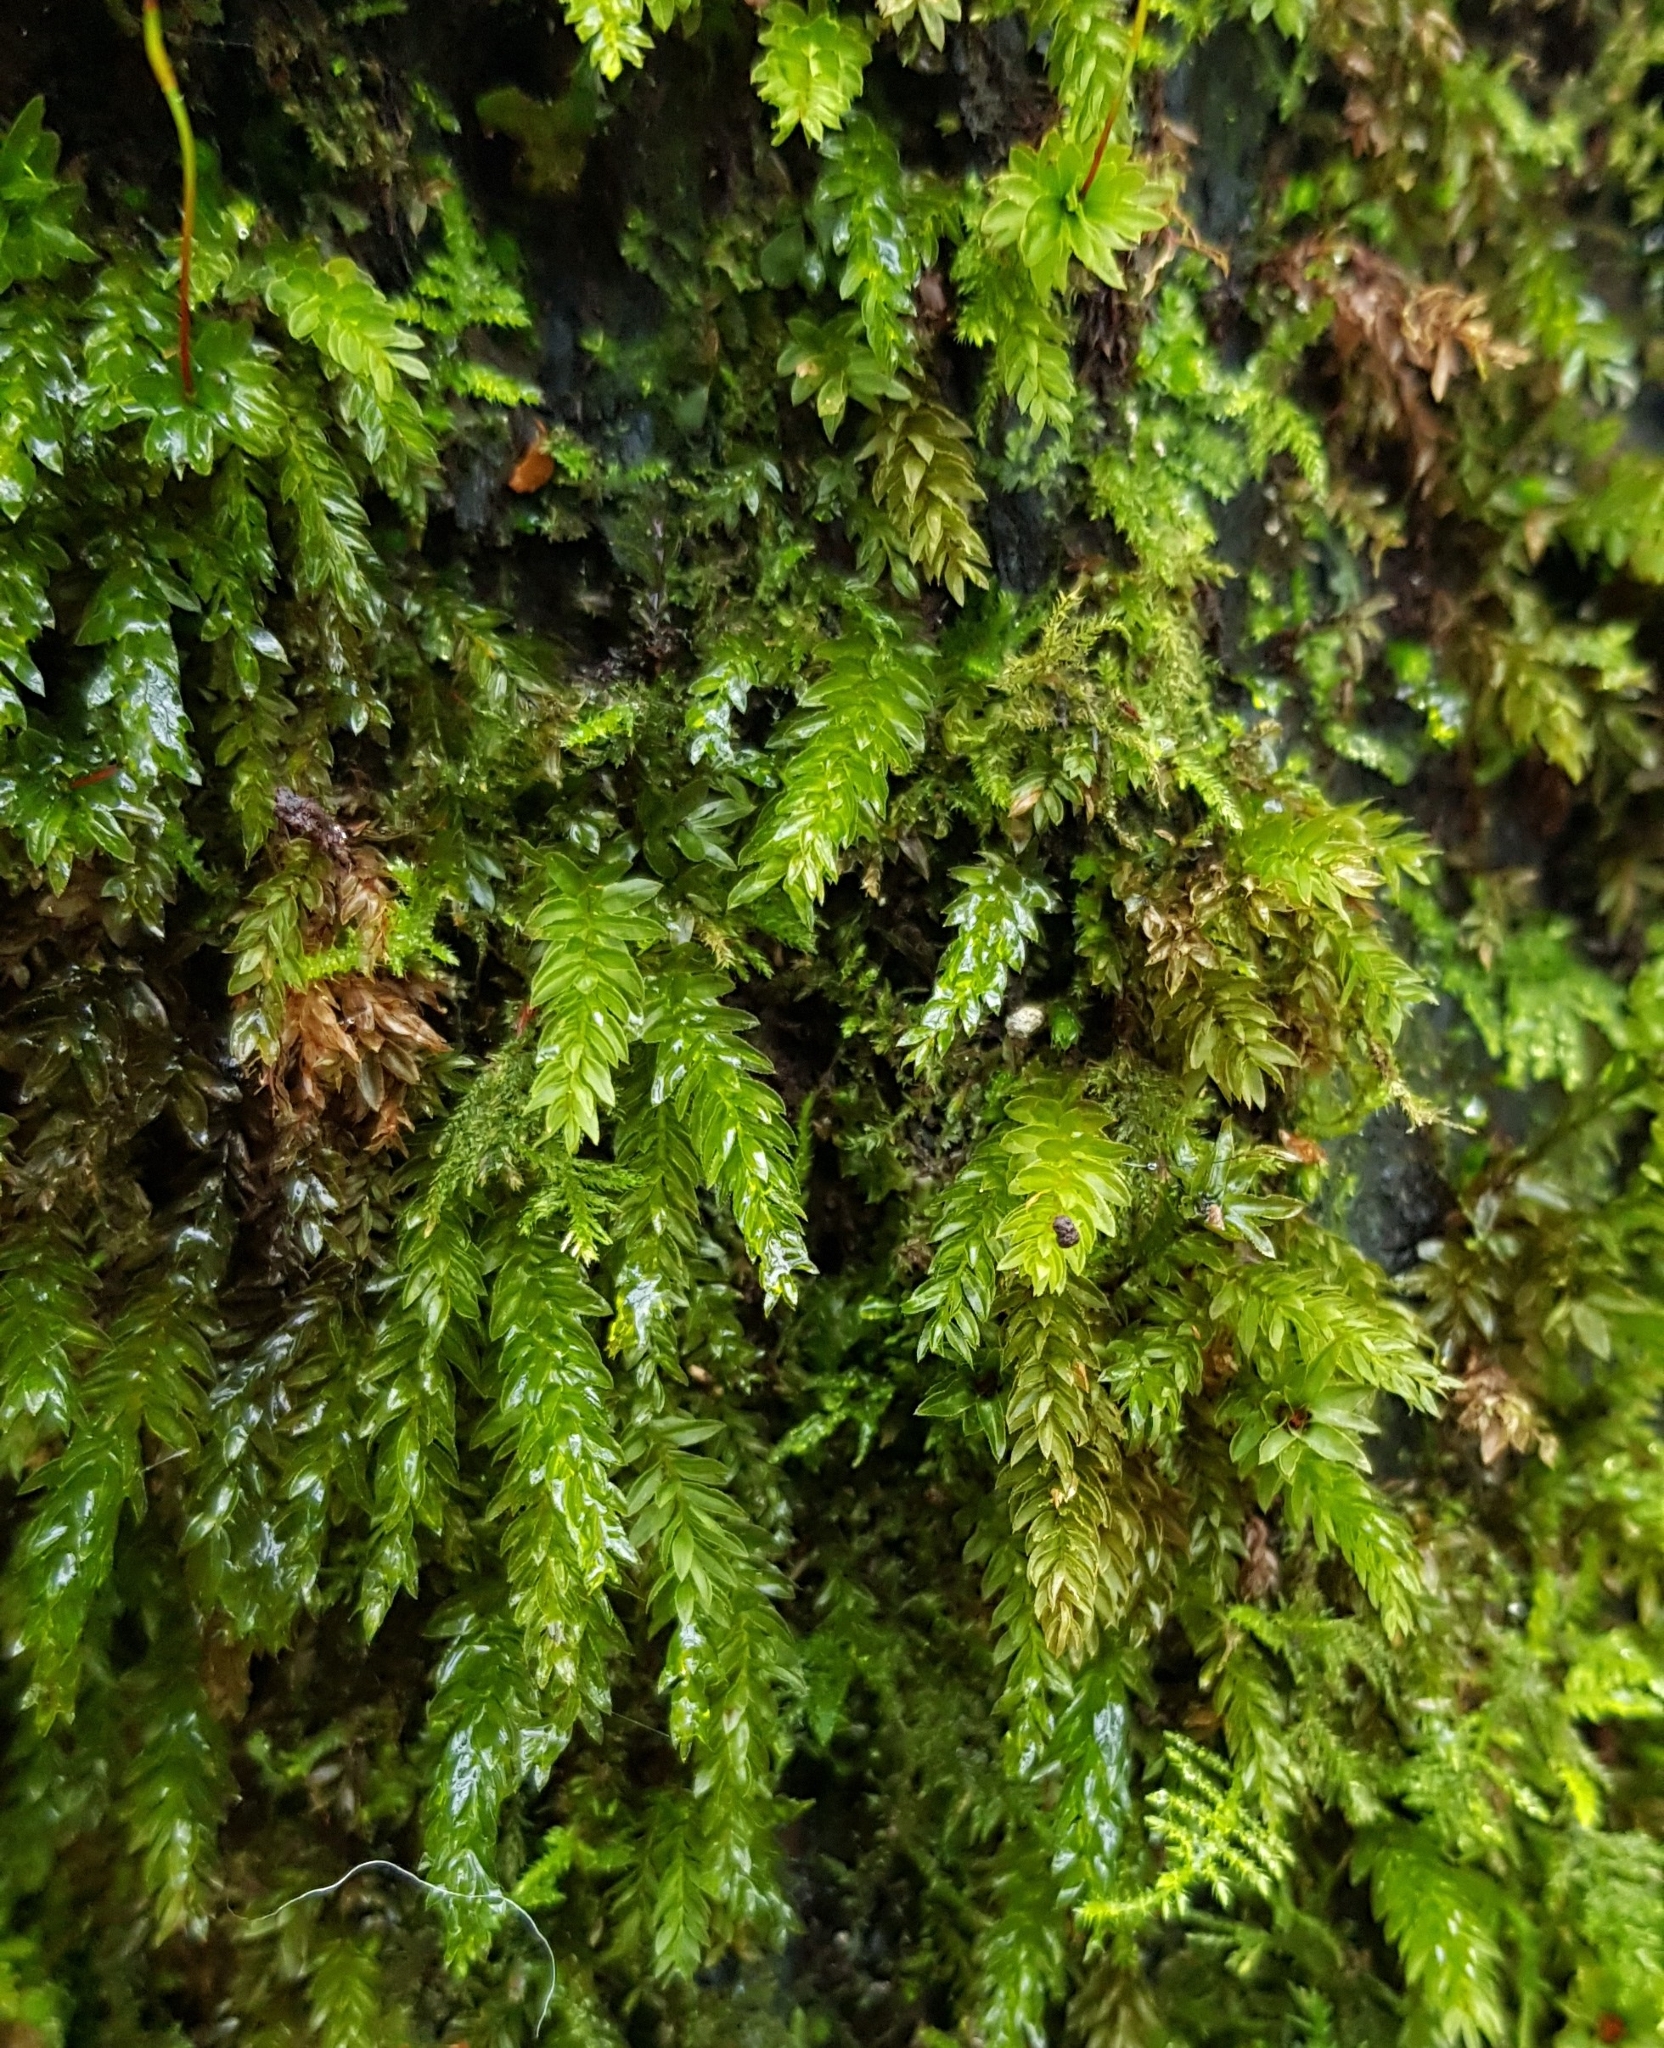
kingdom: Plantae
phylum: Bryophyta
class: Bryopsida
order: Bryales
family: Mniaceae
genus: Mnium
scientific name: Mnium hornum
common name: Swan's-neck leafy moss
